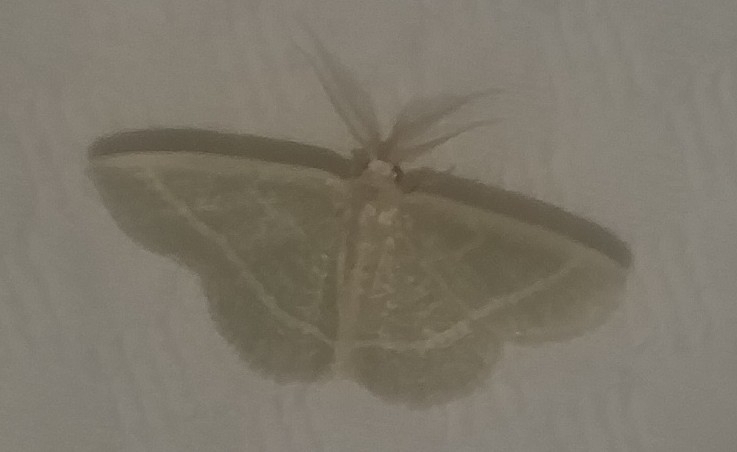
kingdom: Animalia
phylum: Arthropoda
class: Insecta
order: Lepidoptera
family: Geometridae
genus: Chlorochlamys
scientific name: Chlorochlamys chloroleucaria
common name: Blackberry looper
